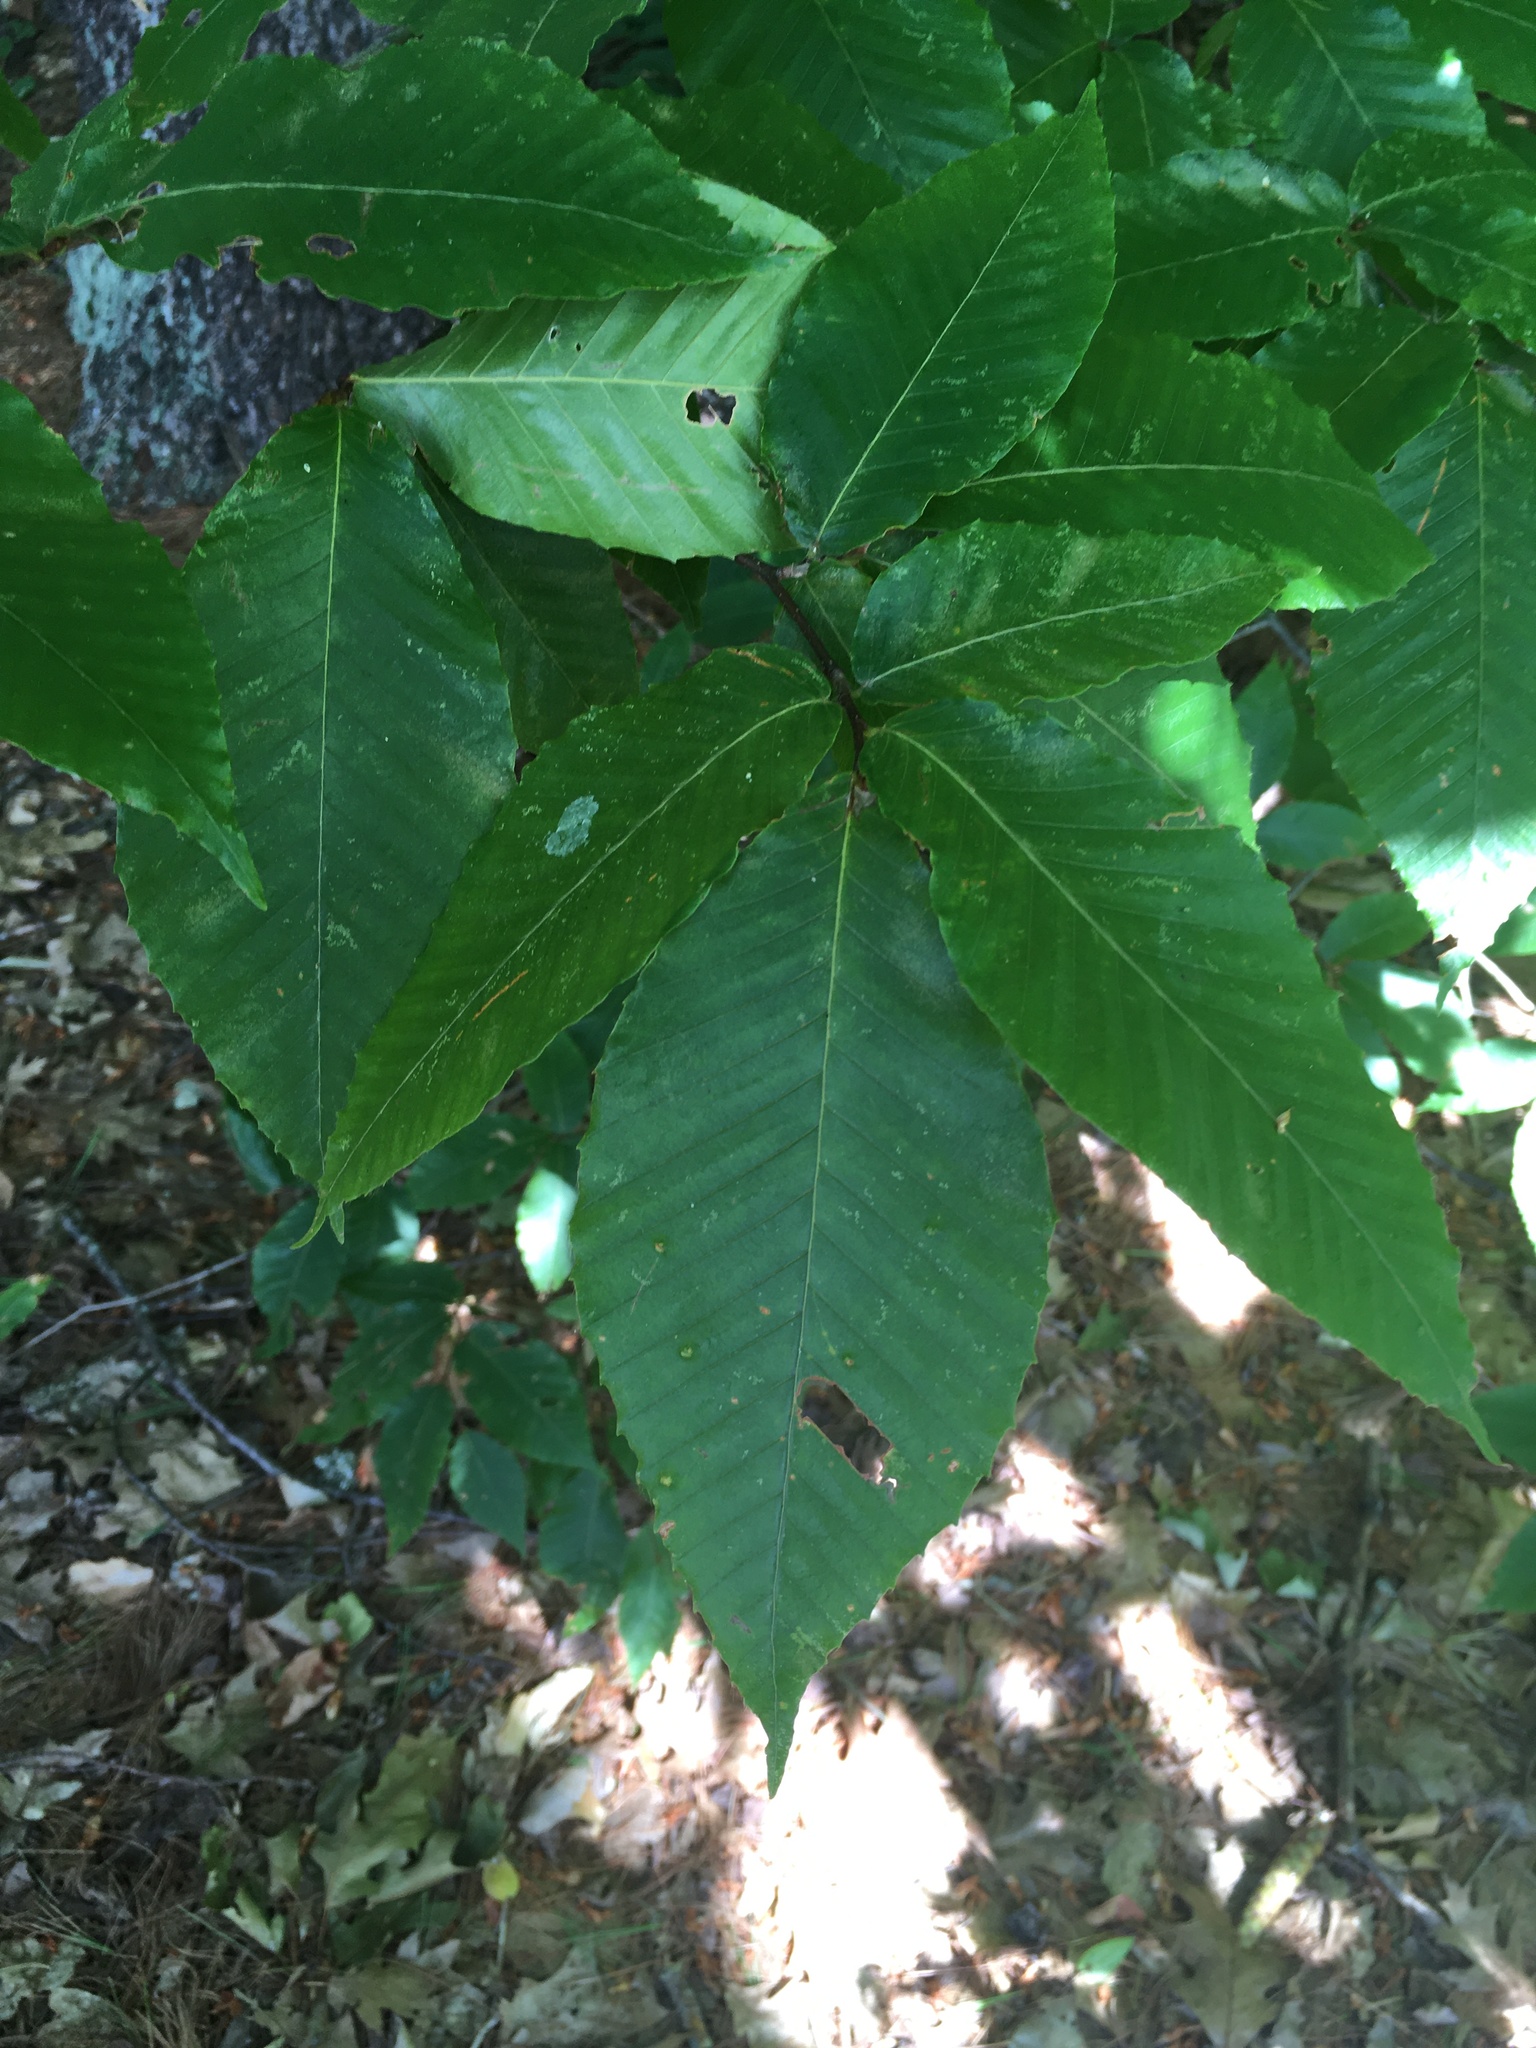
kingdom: Plantae
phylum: Tracheophyta
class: Magnoliopsida
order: Fagales
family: Fagaceae
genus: Fagus
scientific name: Fagus grandifolia
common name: American beech
